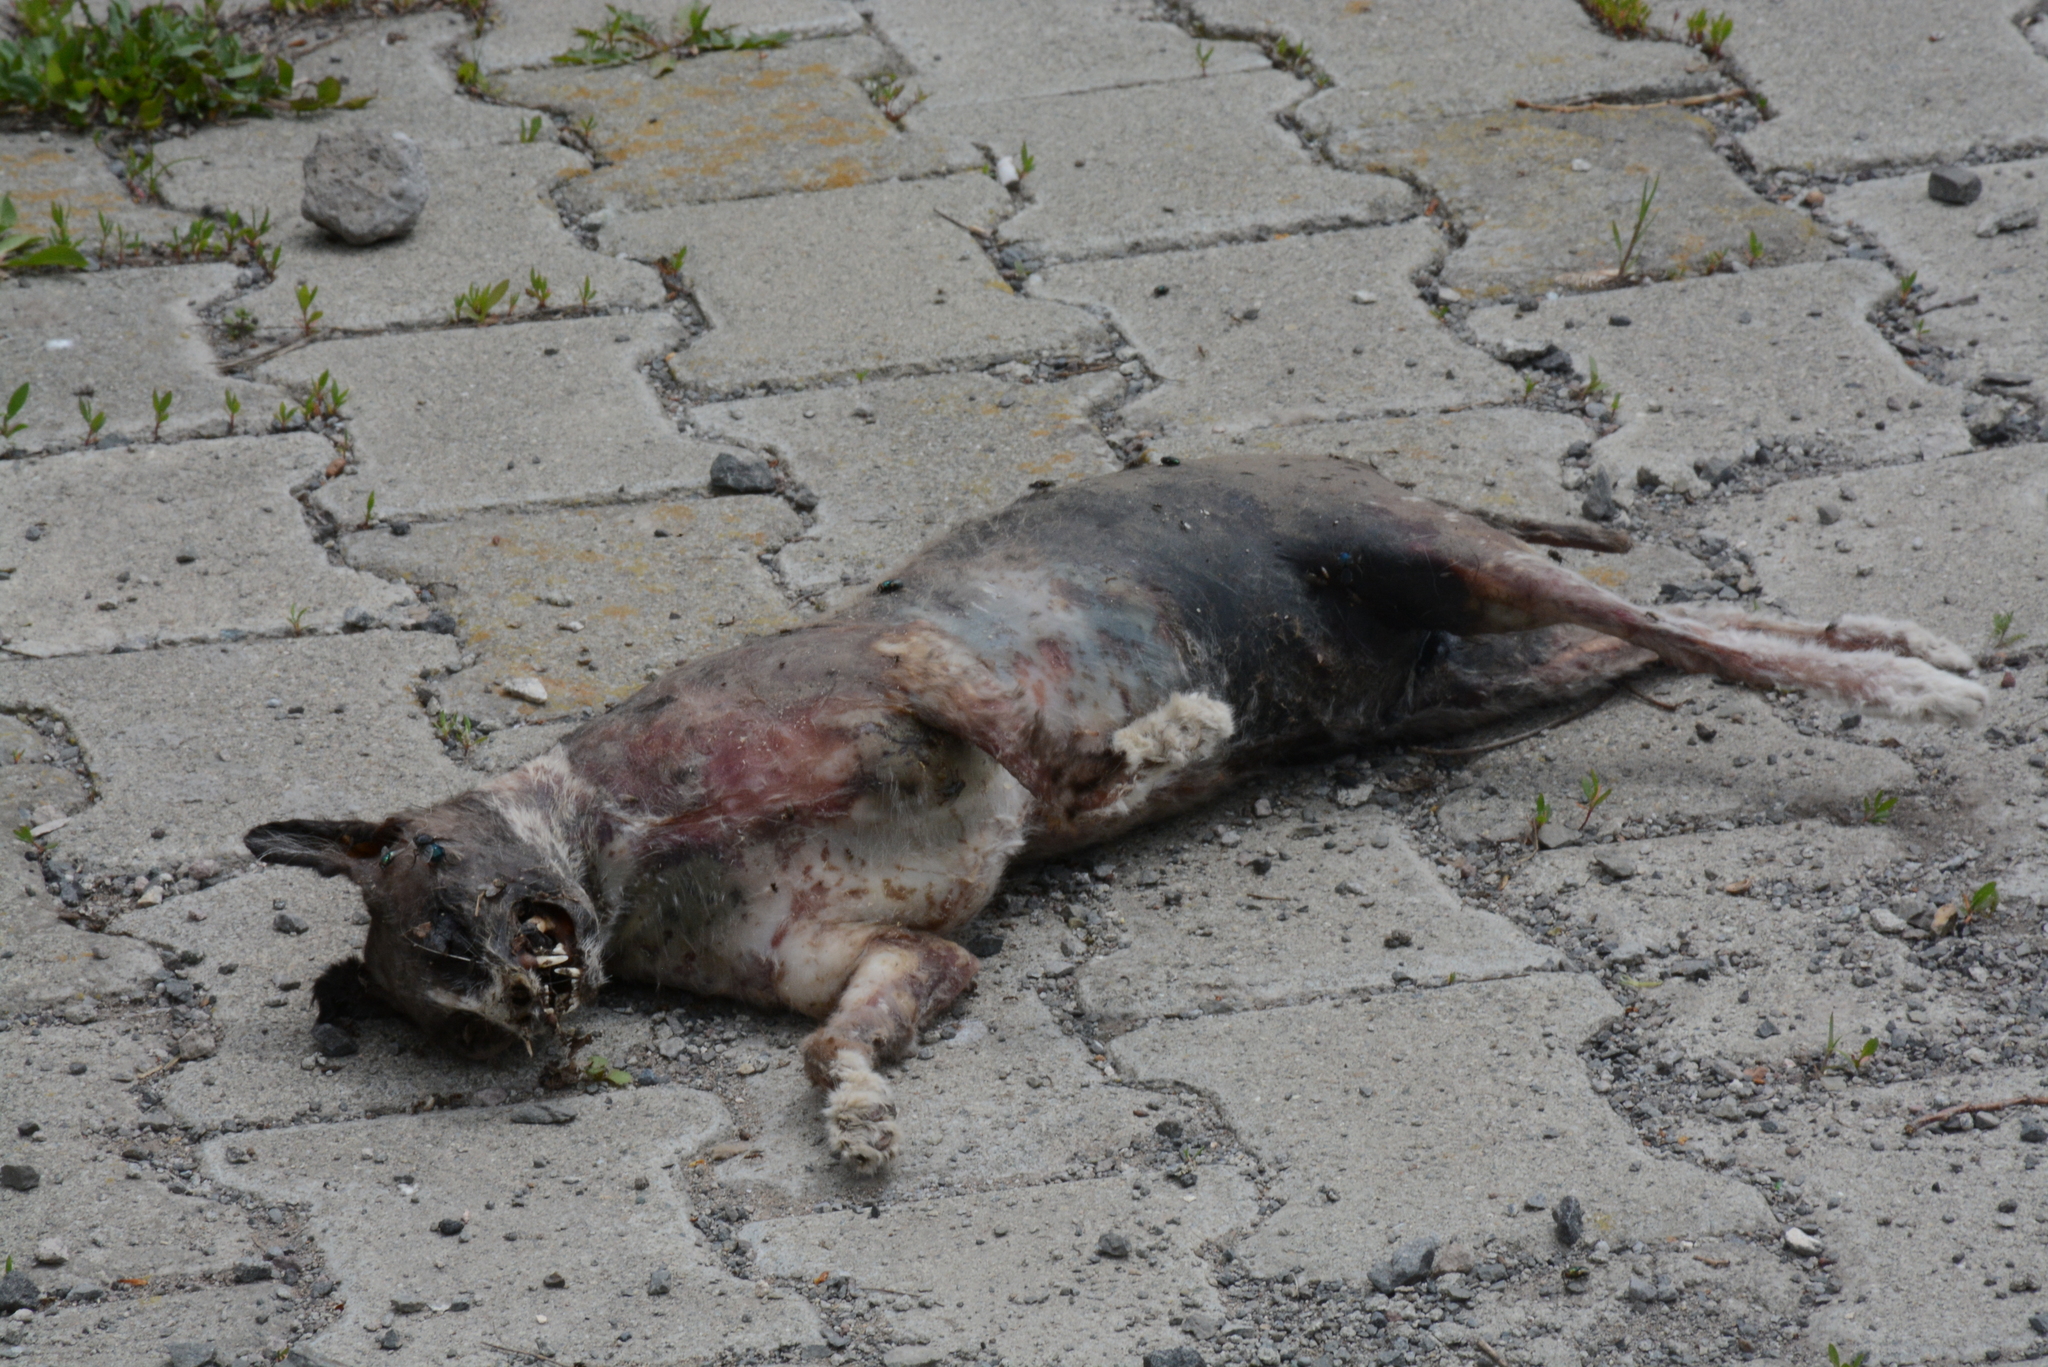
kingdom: Animalia
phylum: Chordata
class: Mammalia
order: Carnivora
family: Felidae
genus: Felis
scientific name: Felis catus
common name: Domestic cat
